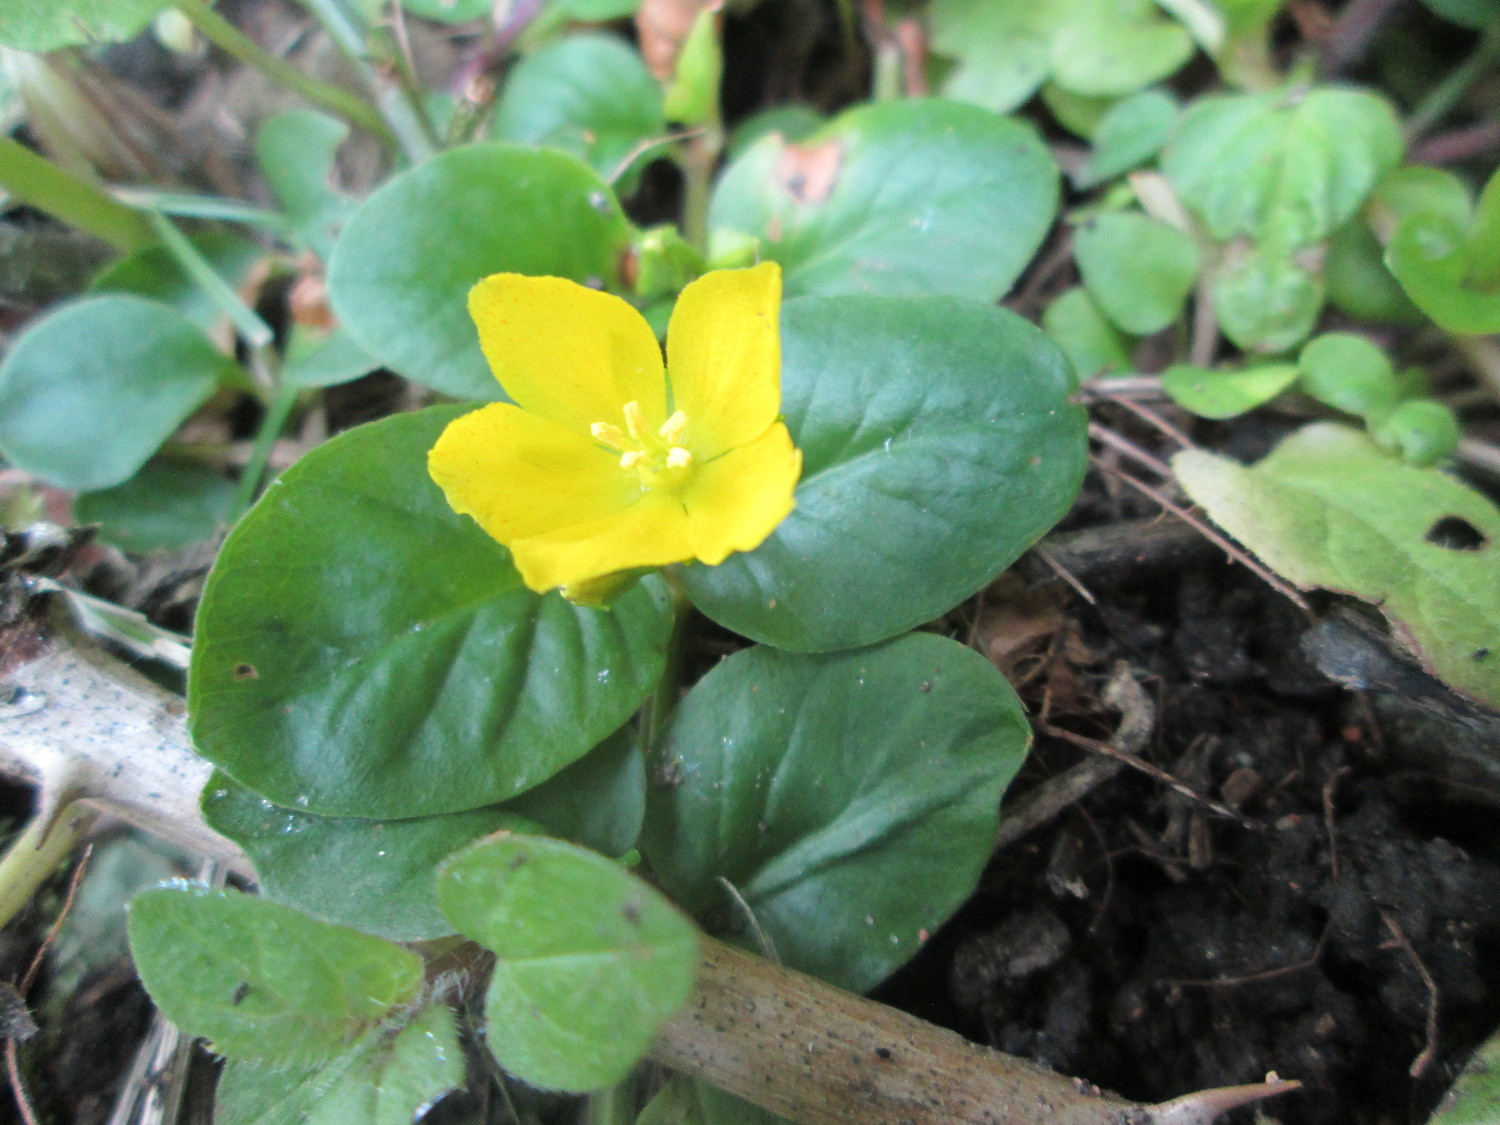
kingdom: Plantae
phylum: Tracheophyta
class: Magnoliopsida
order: Ericales
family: Primulaceae
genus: Lysimachia
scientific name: Lysimachia nummularia
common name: Moneywort
